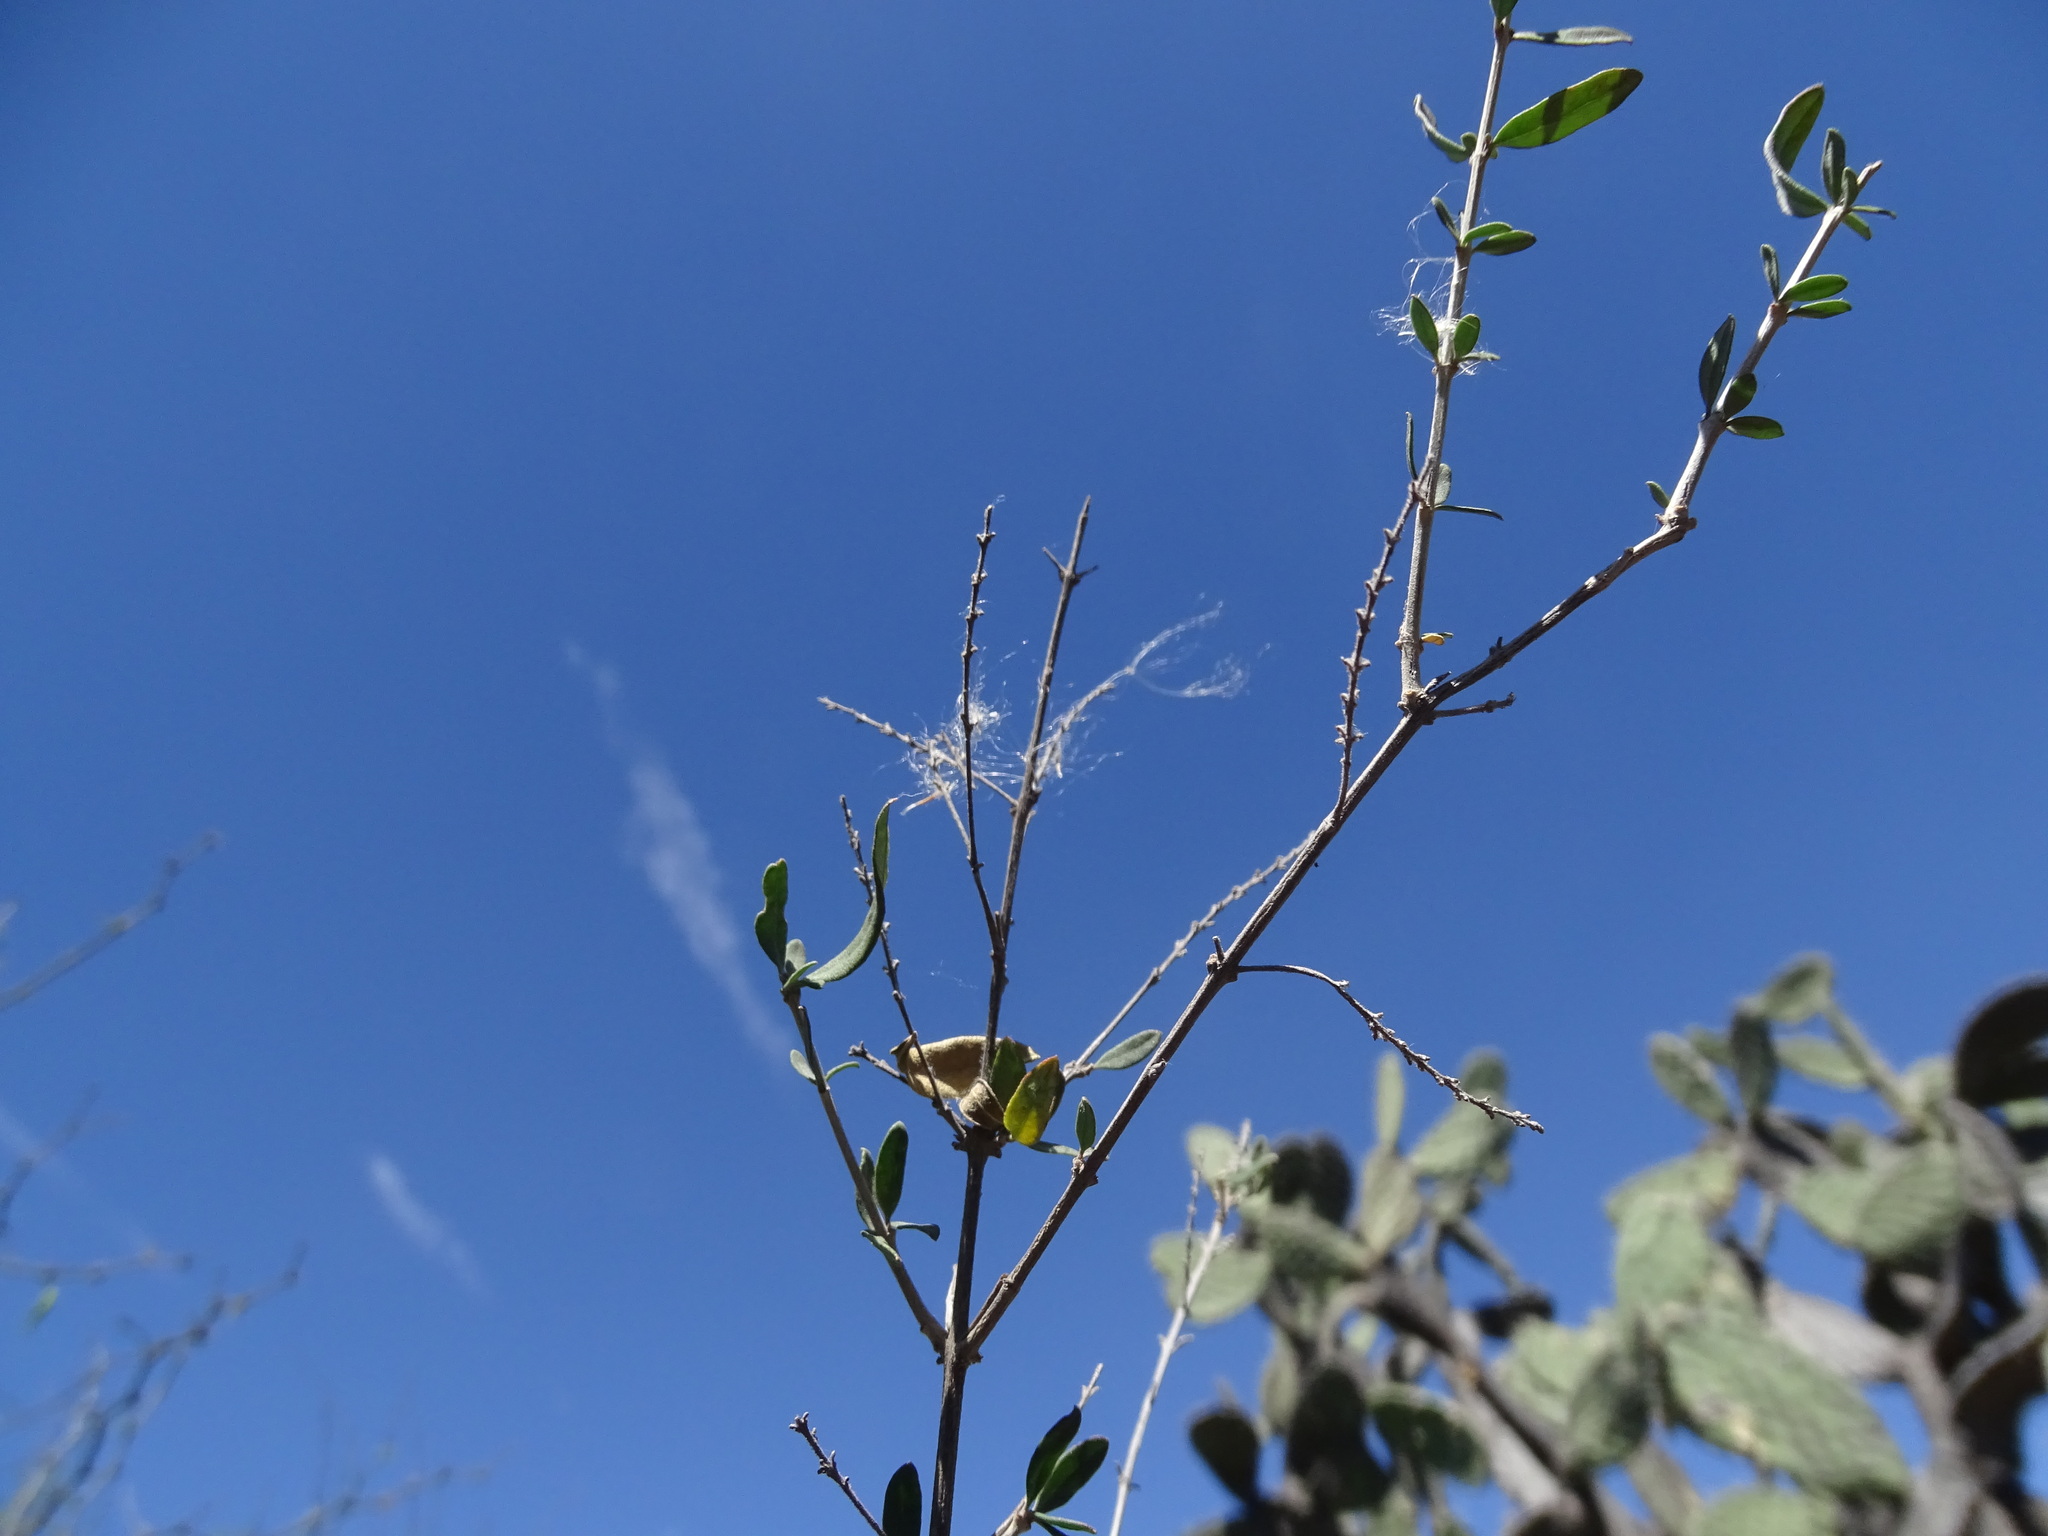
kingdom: Plantae
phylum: Tracheophyta
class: Magnoliopsida
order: Lamiales
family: Verbenaceae
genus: Aloysia
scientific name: Aloysia gratissima
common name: Common bee-brush
